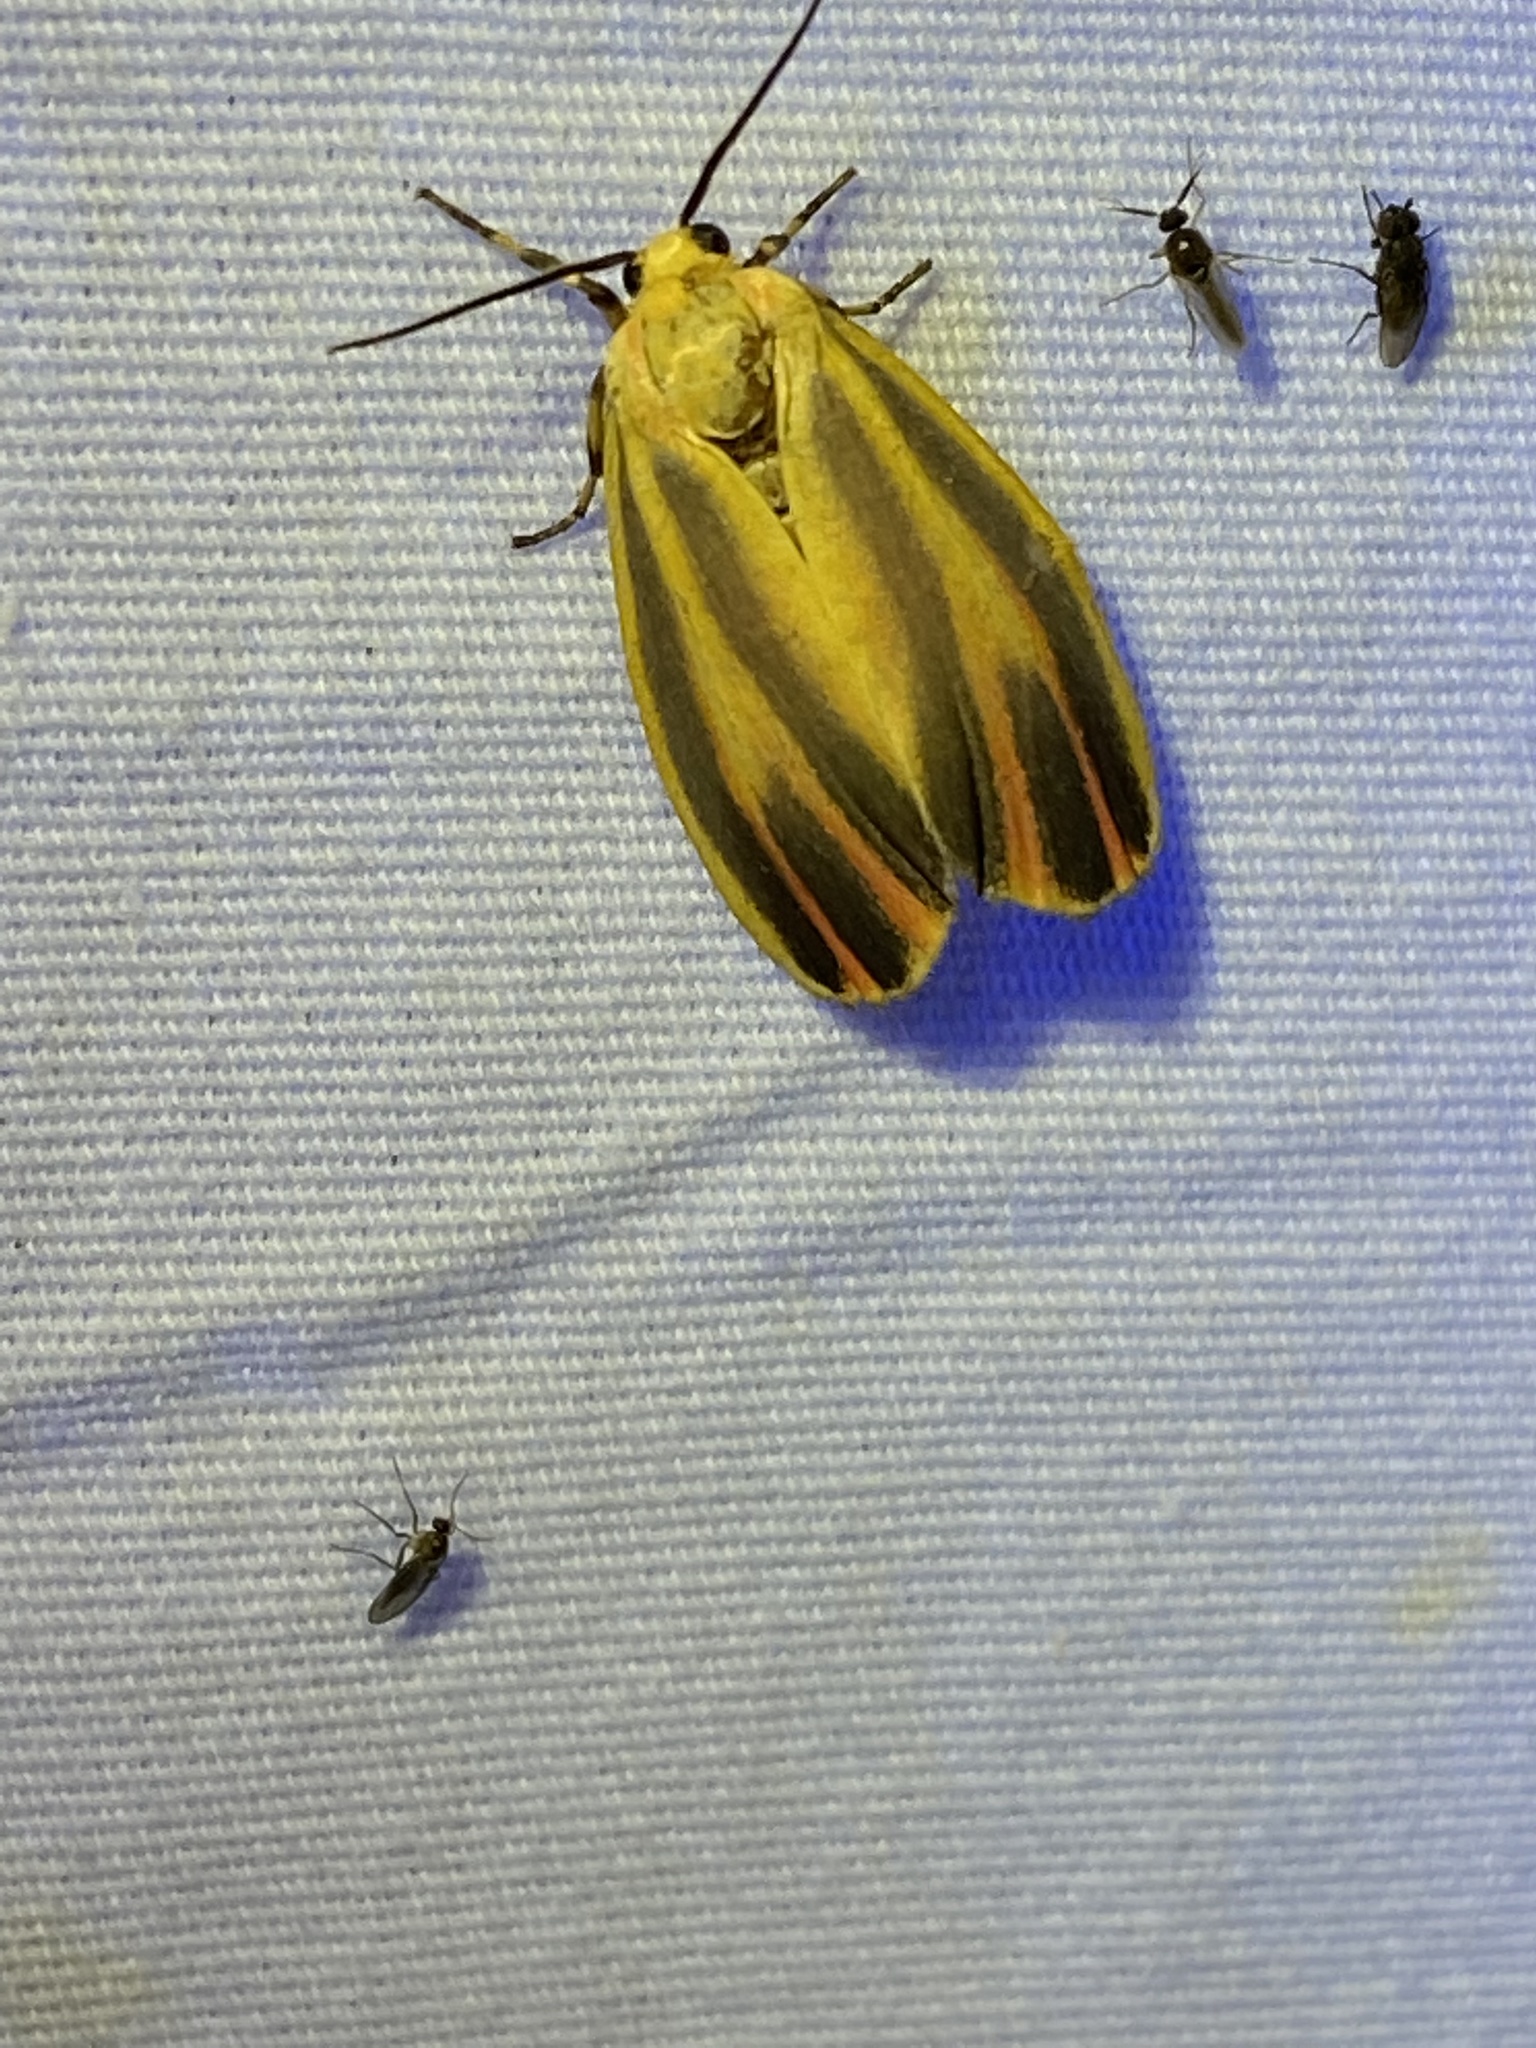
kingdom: Animalia
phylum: Arthropoda
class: Insecta
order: Lepidoptera
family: Erebidae
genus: Hypoprepia
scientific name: Hypoprepia fucosa
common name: Painted lichen moth
